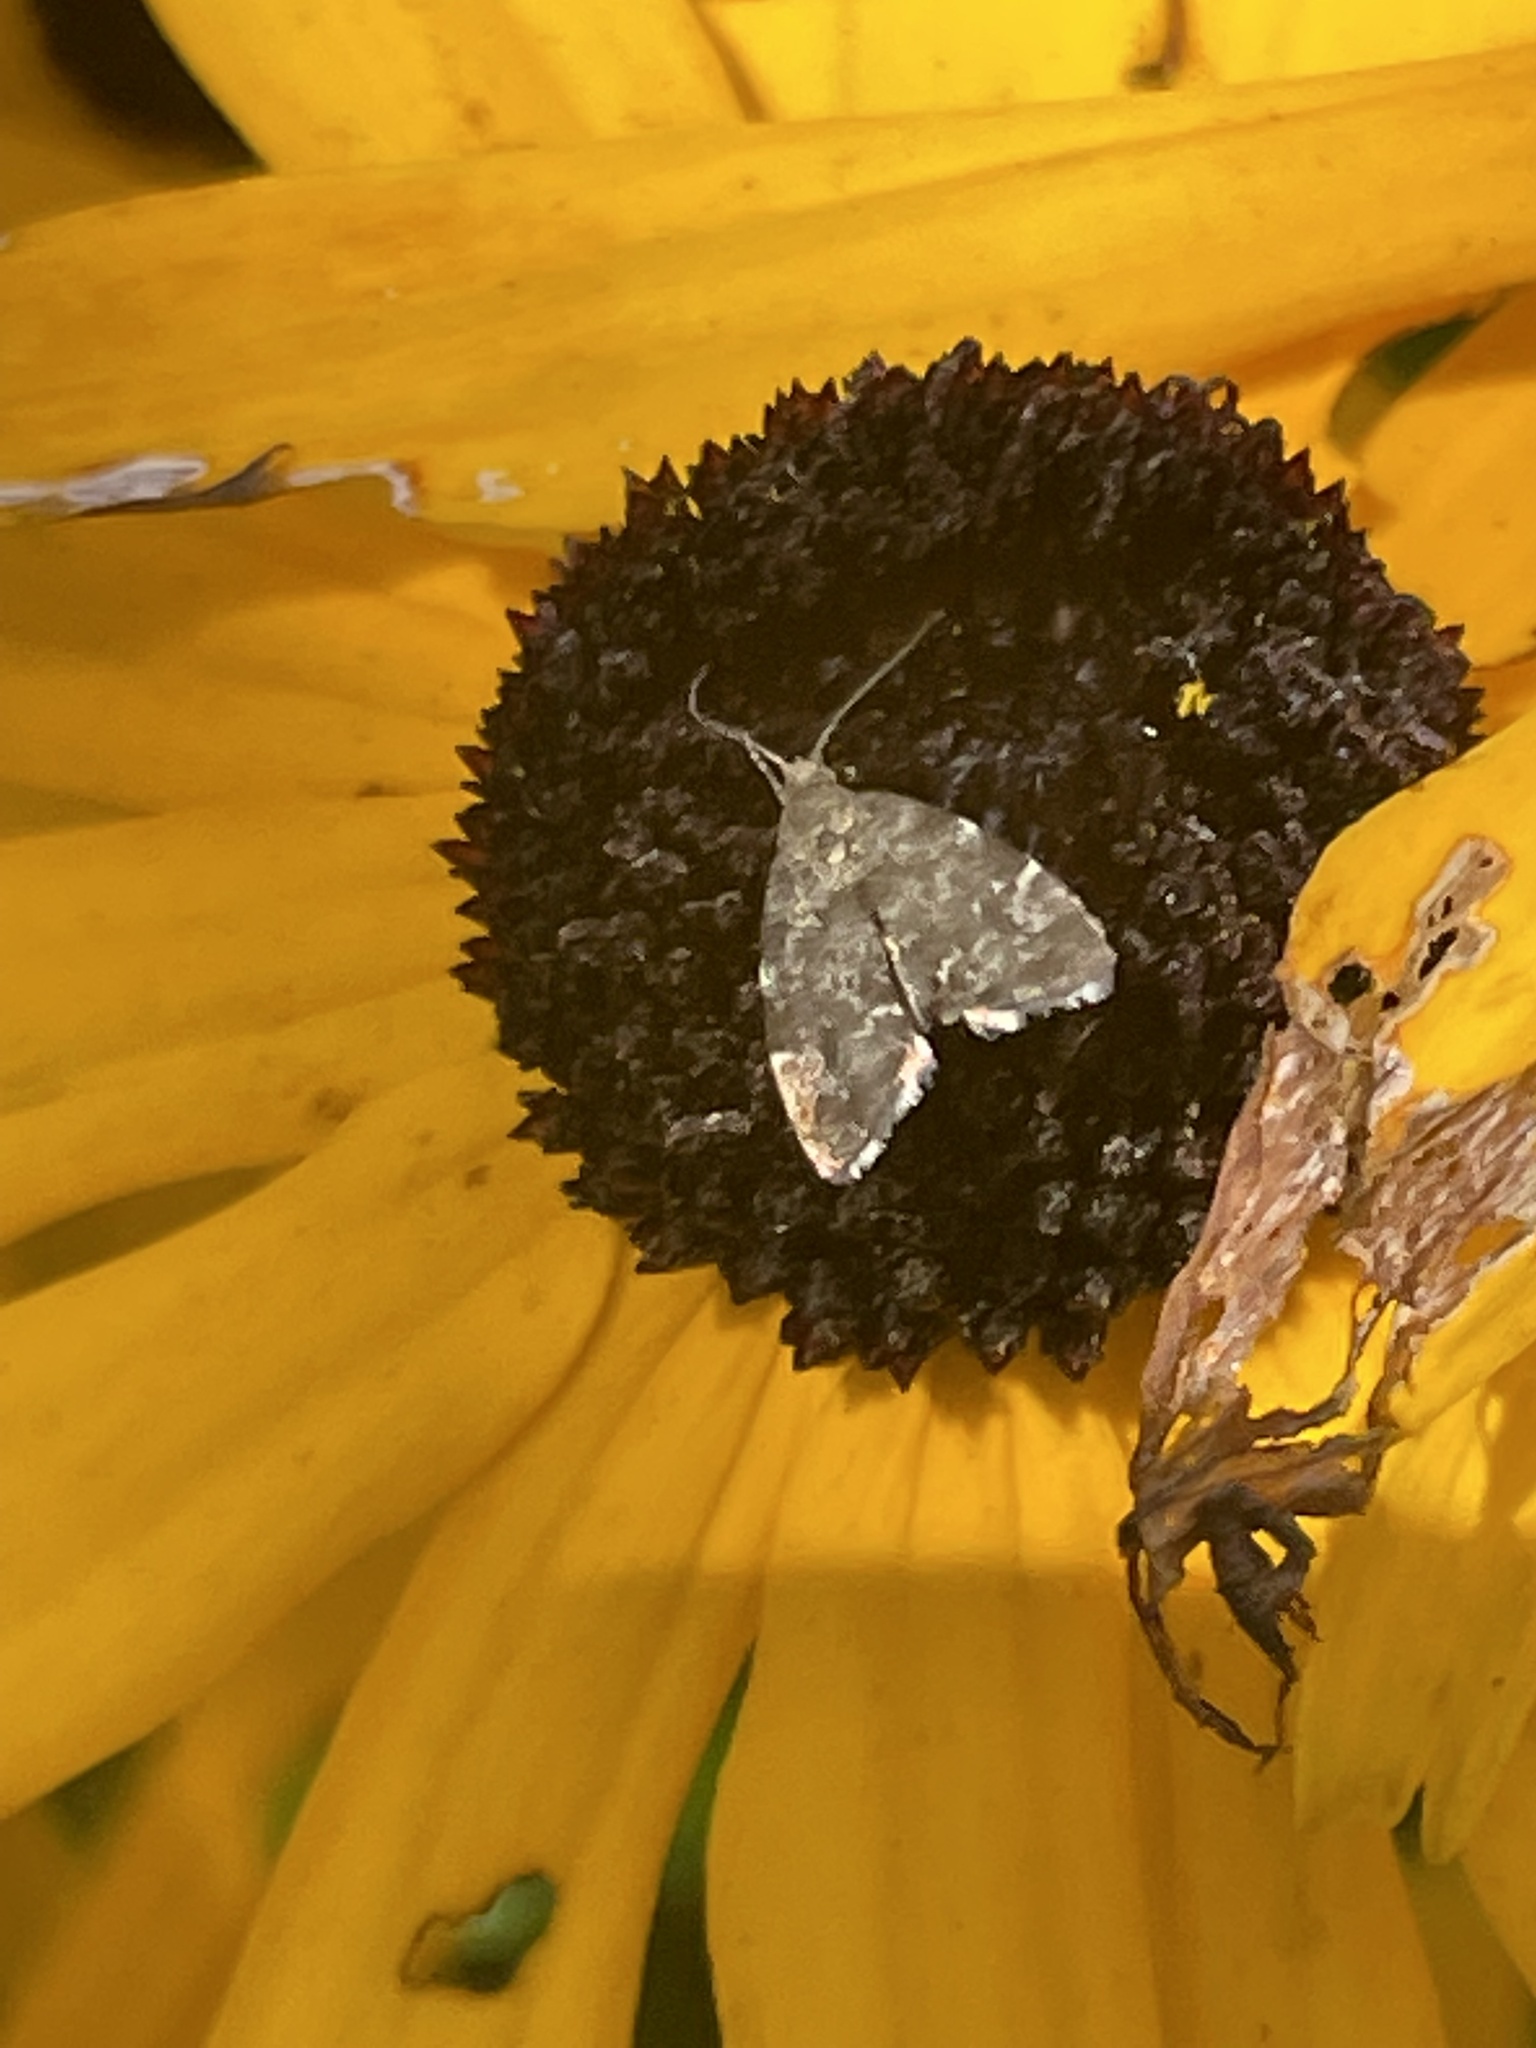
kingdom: Animalia
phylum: Arthropoda
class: Insecta
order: Lepidoptera
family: Choreutidae
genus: Anthophila
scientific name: Anthophila fabriciana
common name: Nettle-tap
